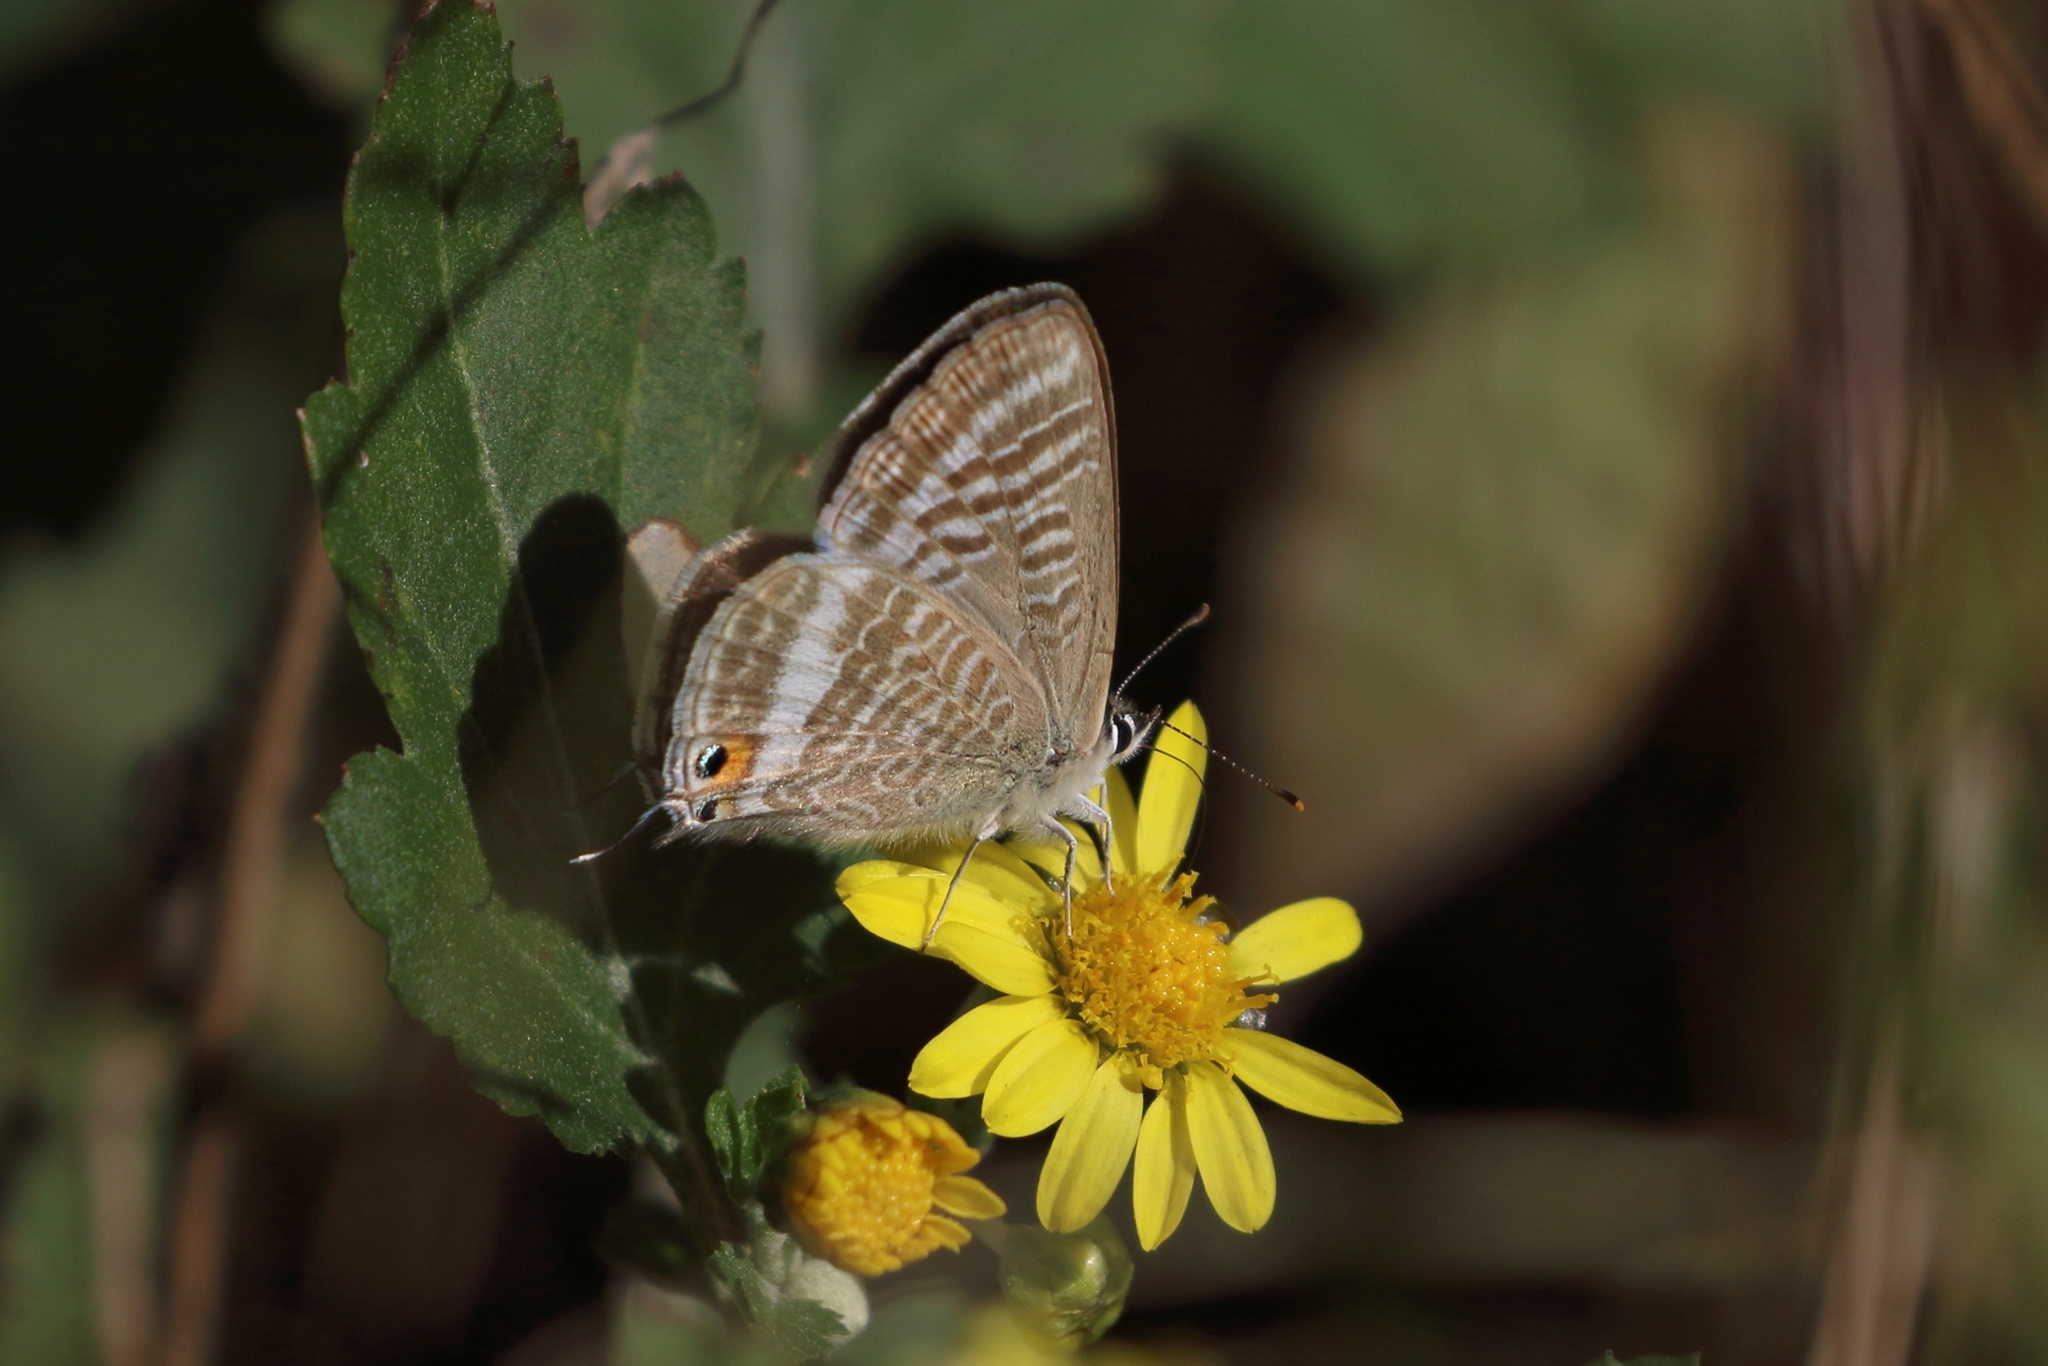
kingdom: Animalia
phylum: Arthropoda
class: Insecta
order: Lepidoptera
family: Lycaenidae
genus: Lampides
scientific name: Lampides boeticus
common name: Long-tailed blue
